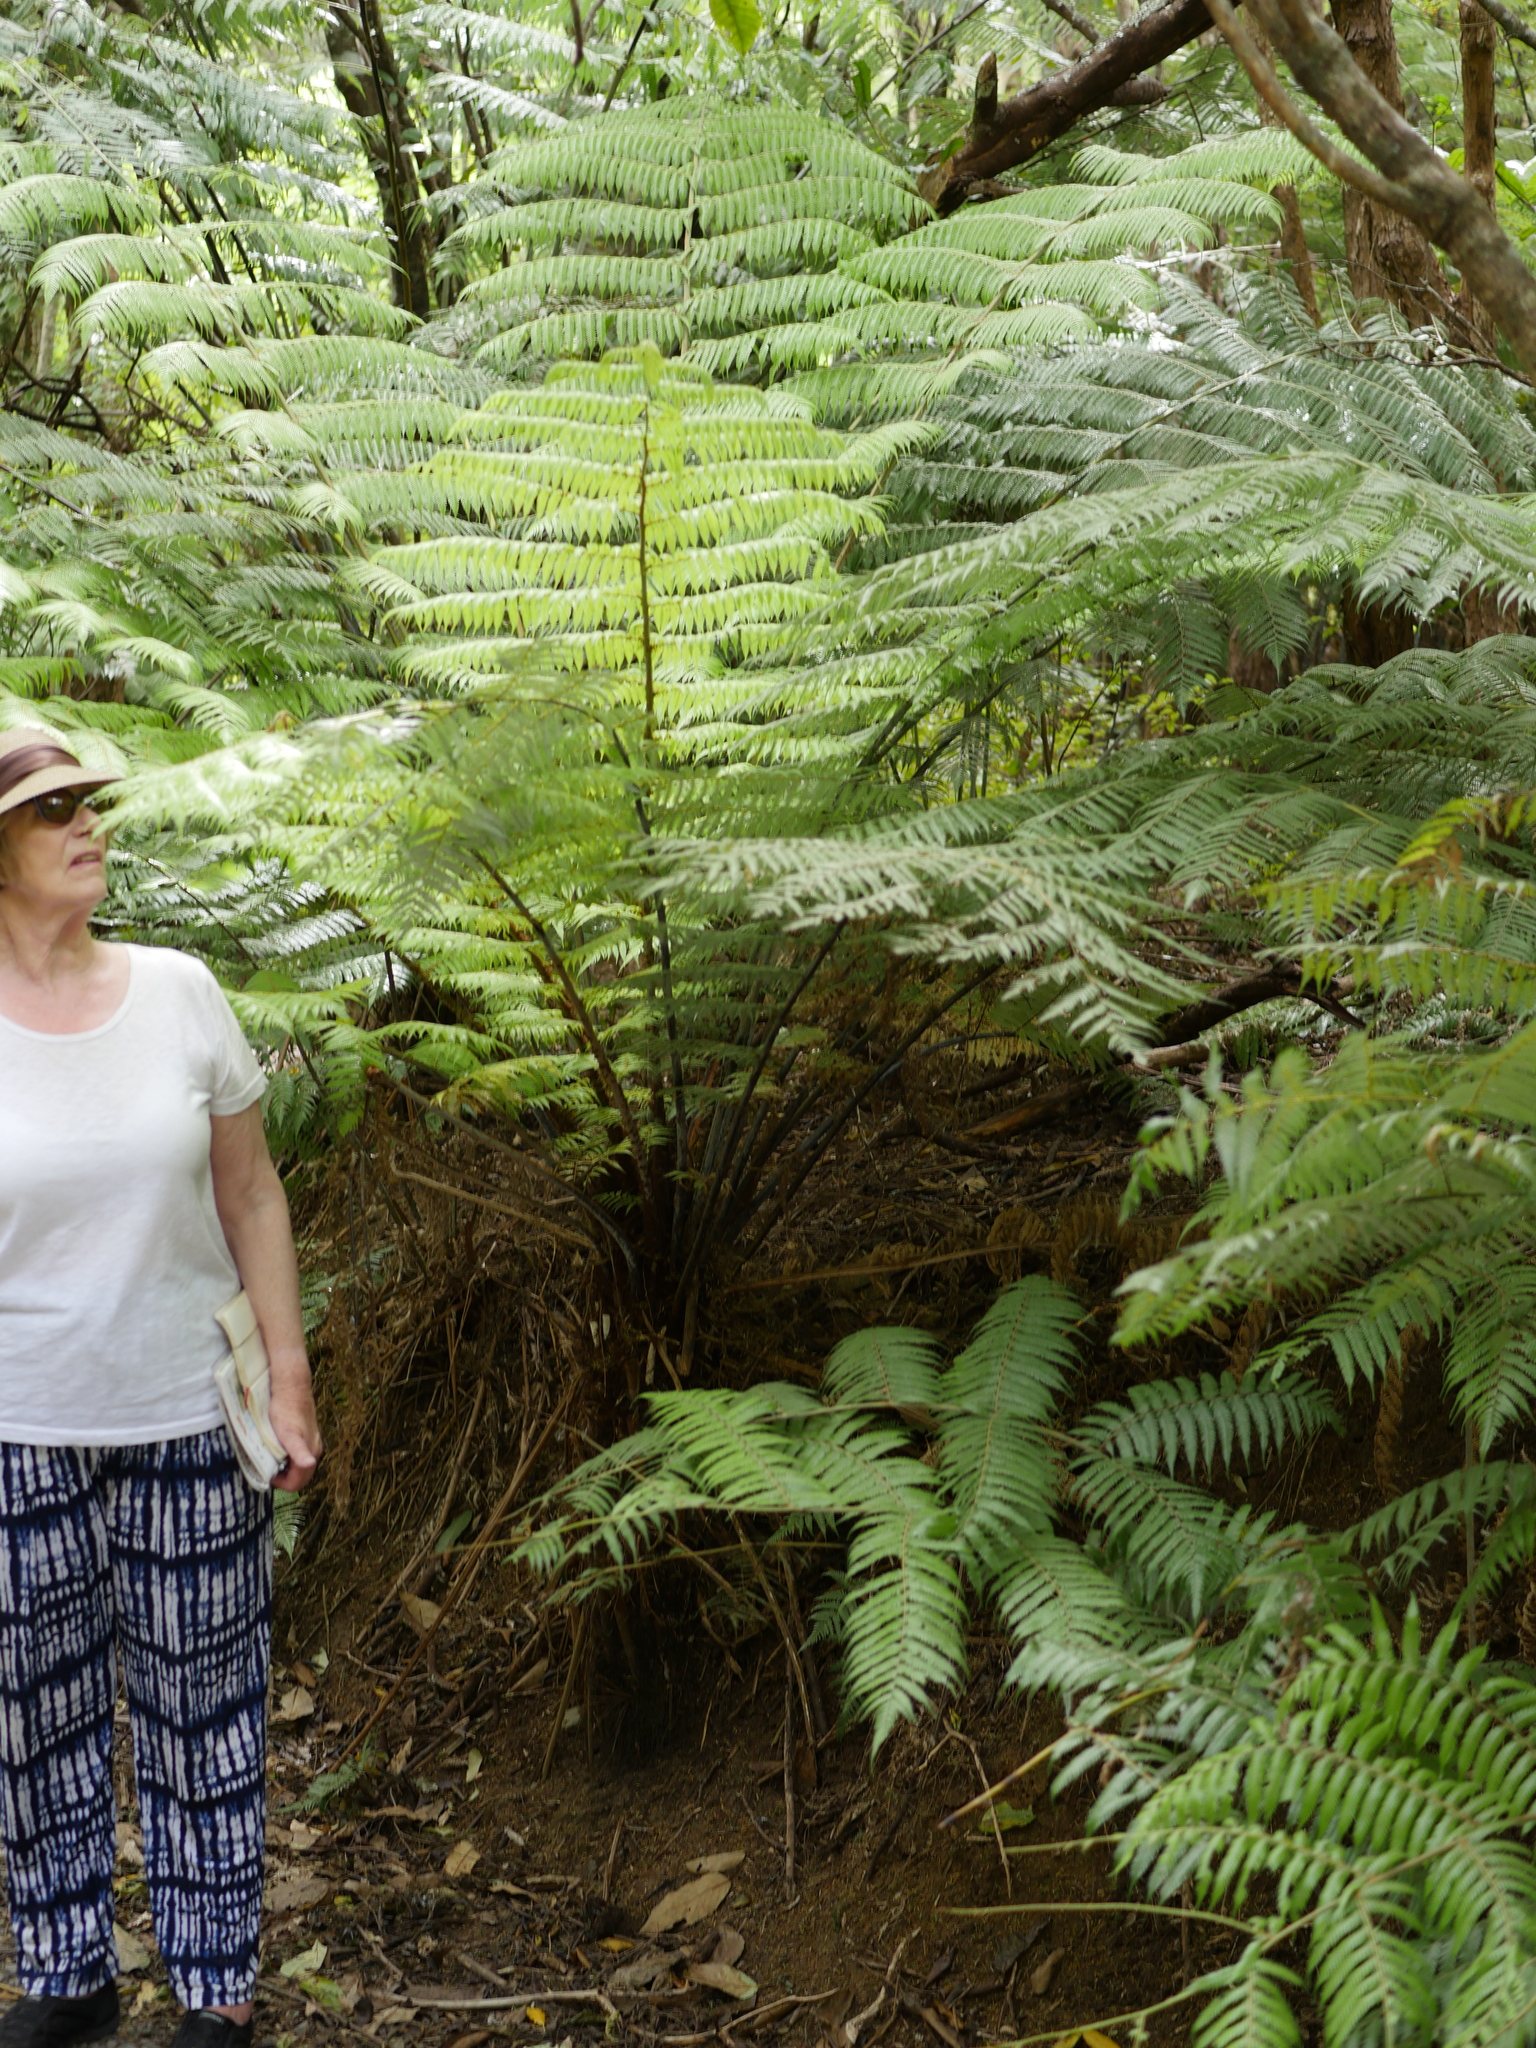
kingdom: Plantae
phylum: Tracheophyta
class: Polypodiopsida
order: Cyatheales
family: Cyatheaceae
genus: Alsophila
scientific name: Alsophila dealbata
